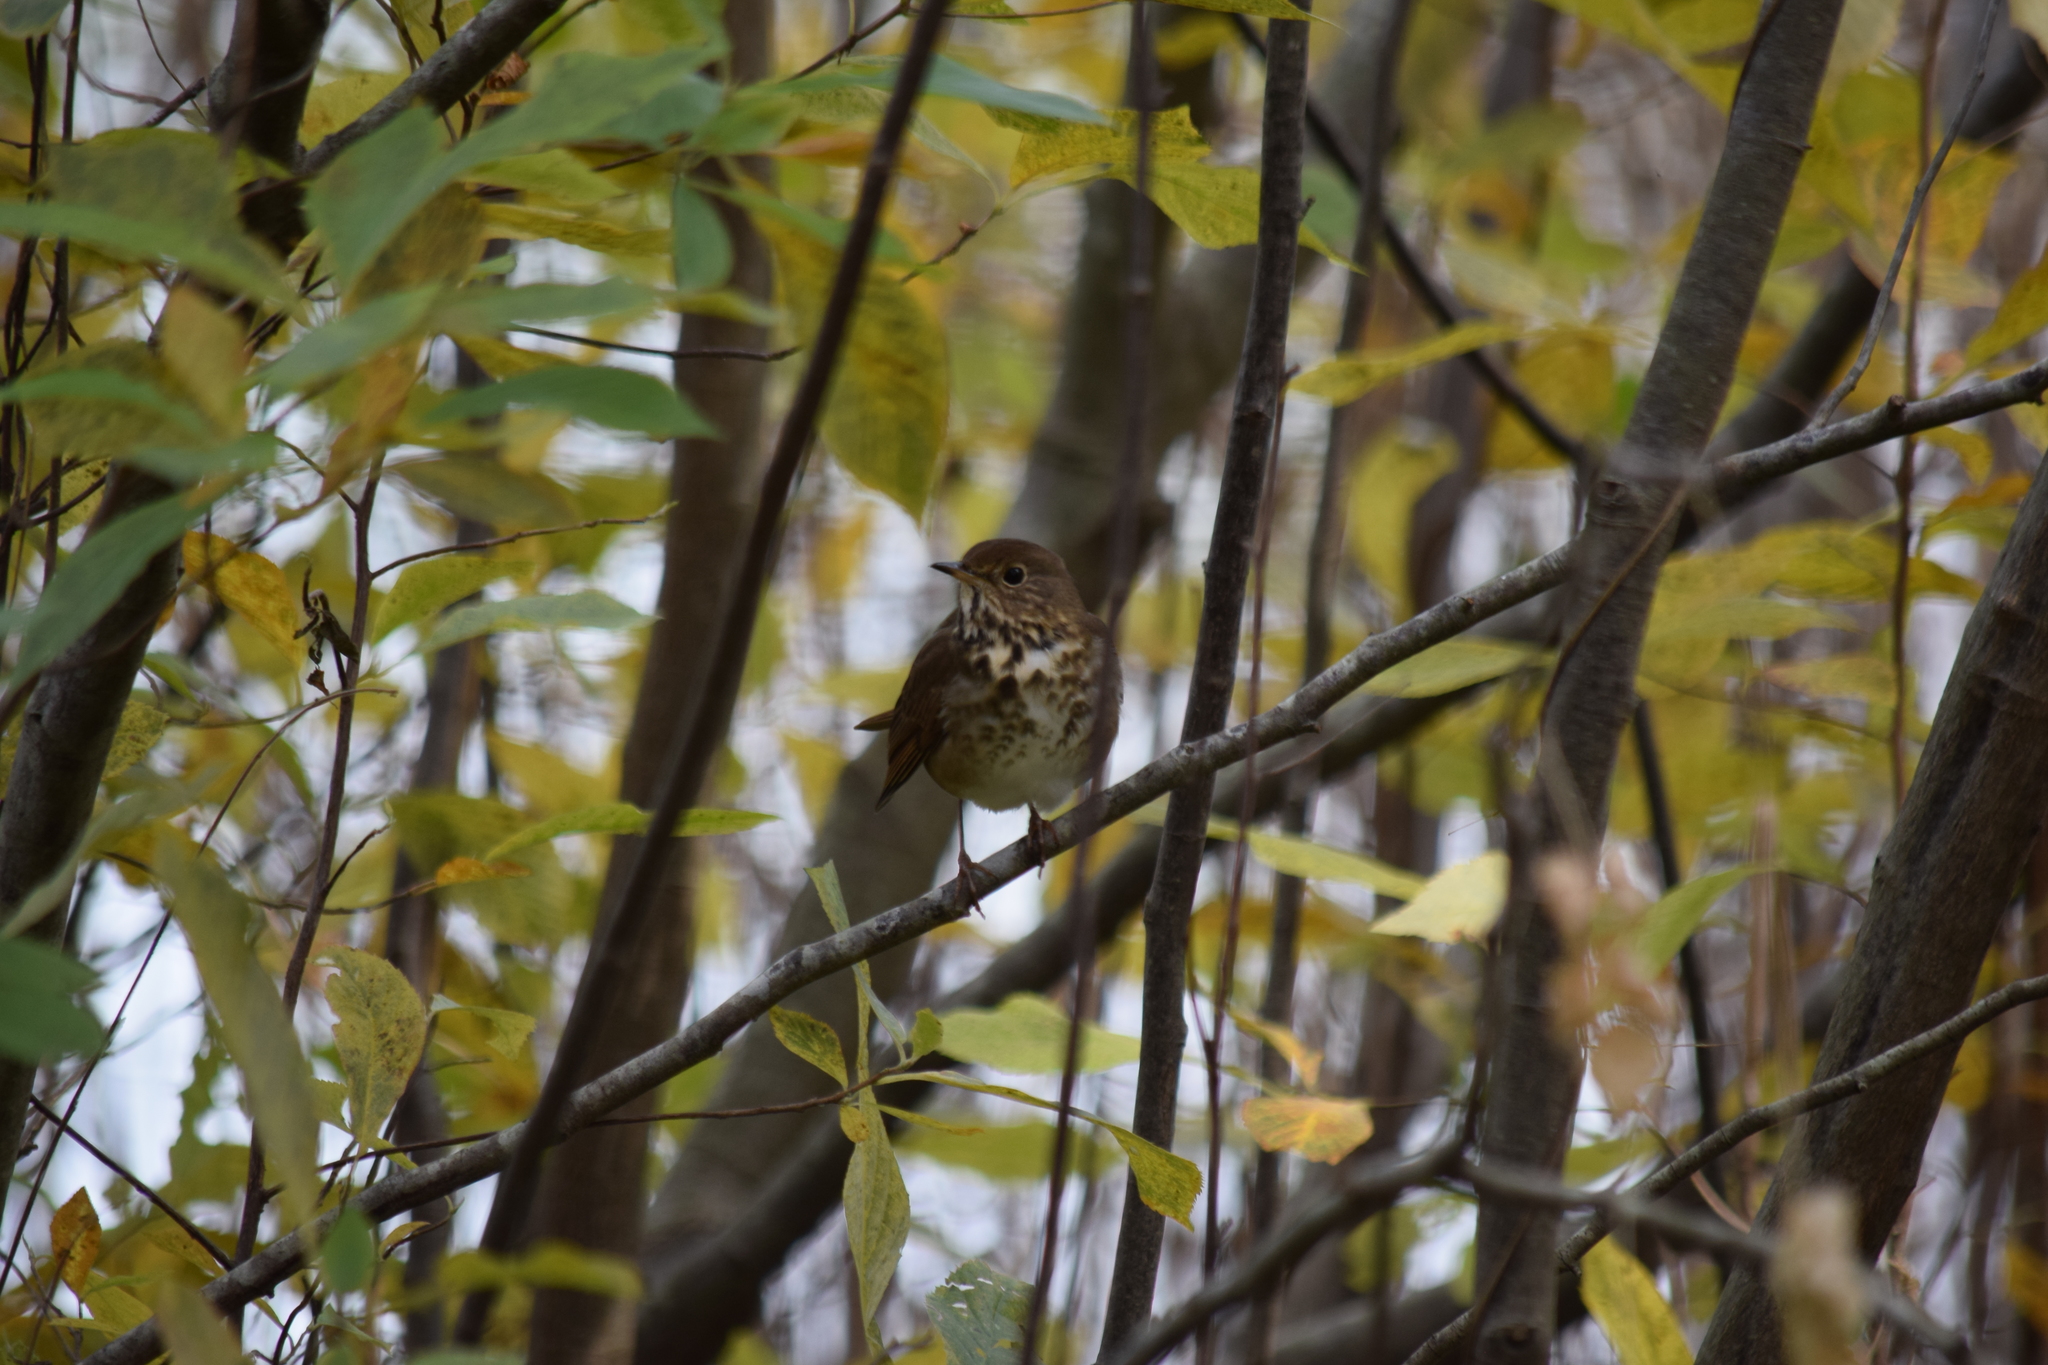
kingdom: Animalia
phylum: Chordata
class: Aves
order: Passeriformes
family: Turdidae
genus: Catharus
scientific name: Catharus guttatus
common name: Hermit thrush
